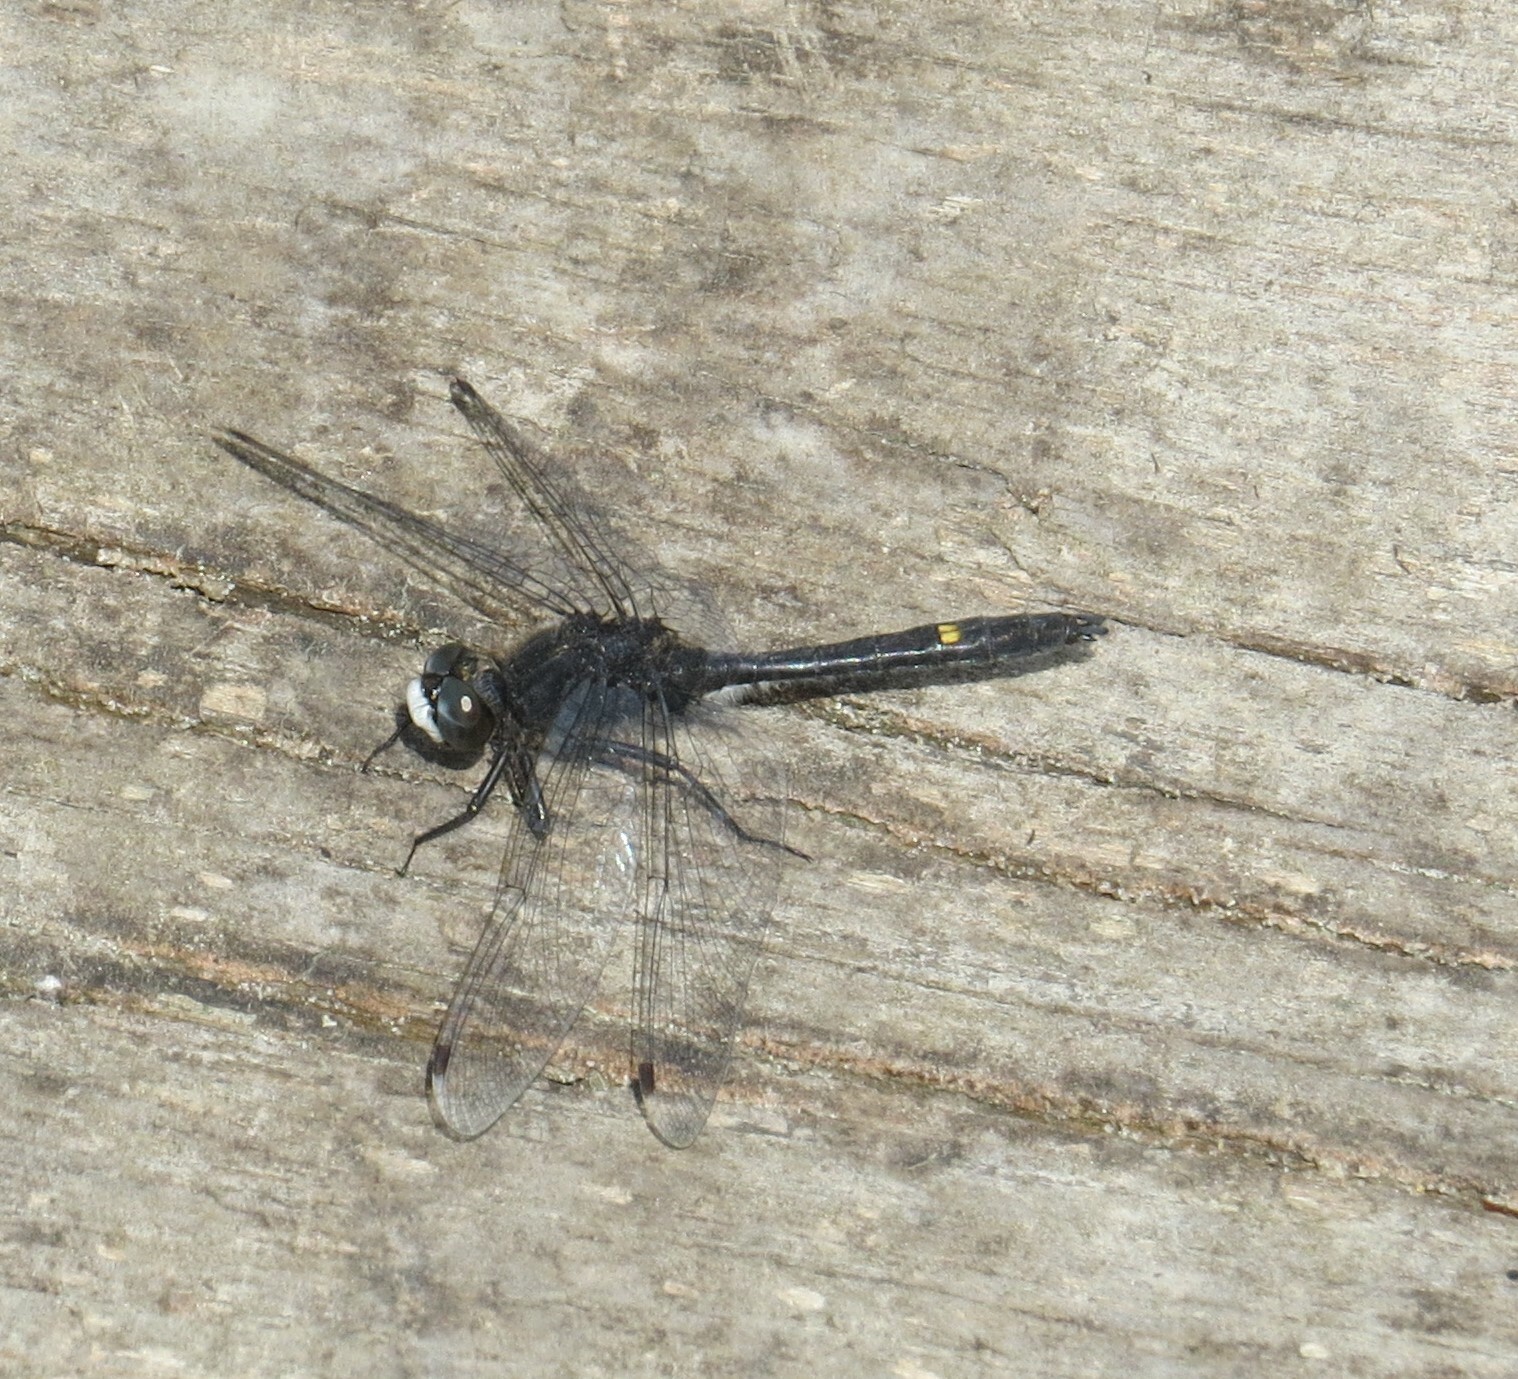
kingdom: Animalia
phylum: Arthropoda
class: Insecta
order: Odonata
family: Libellulidae
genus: Leucorrhinia
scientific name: Leucorrhinia intacta
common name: Dot-tailed whiteface
